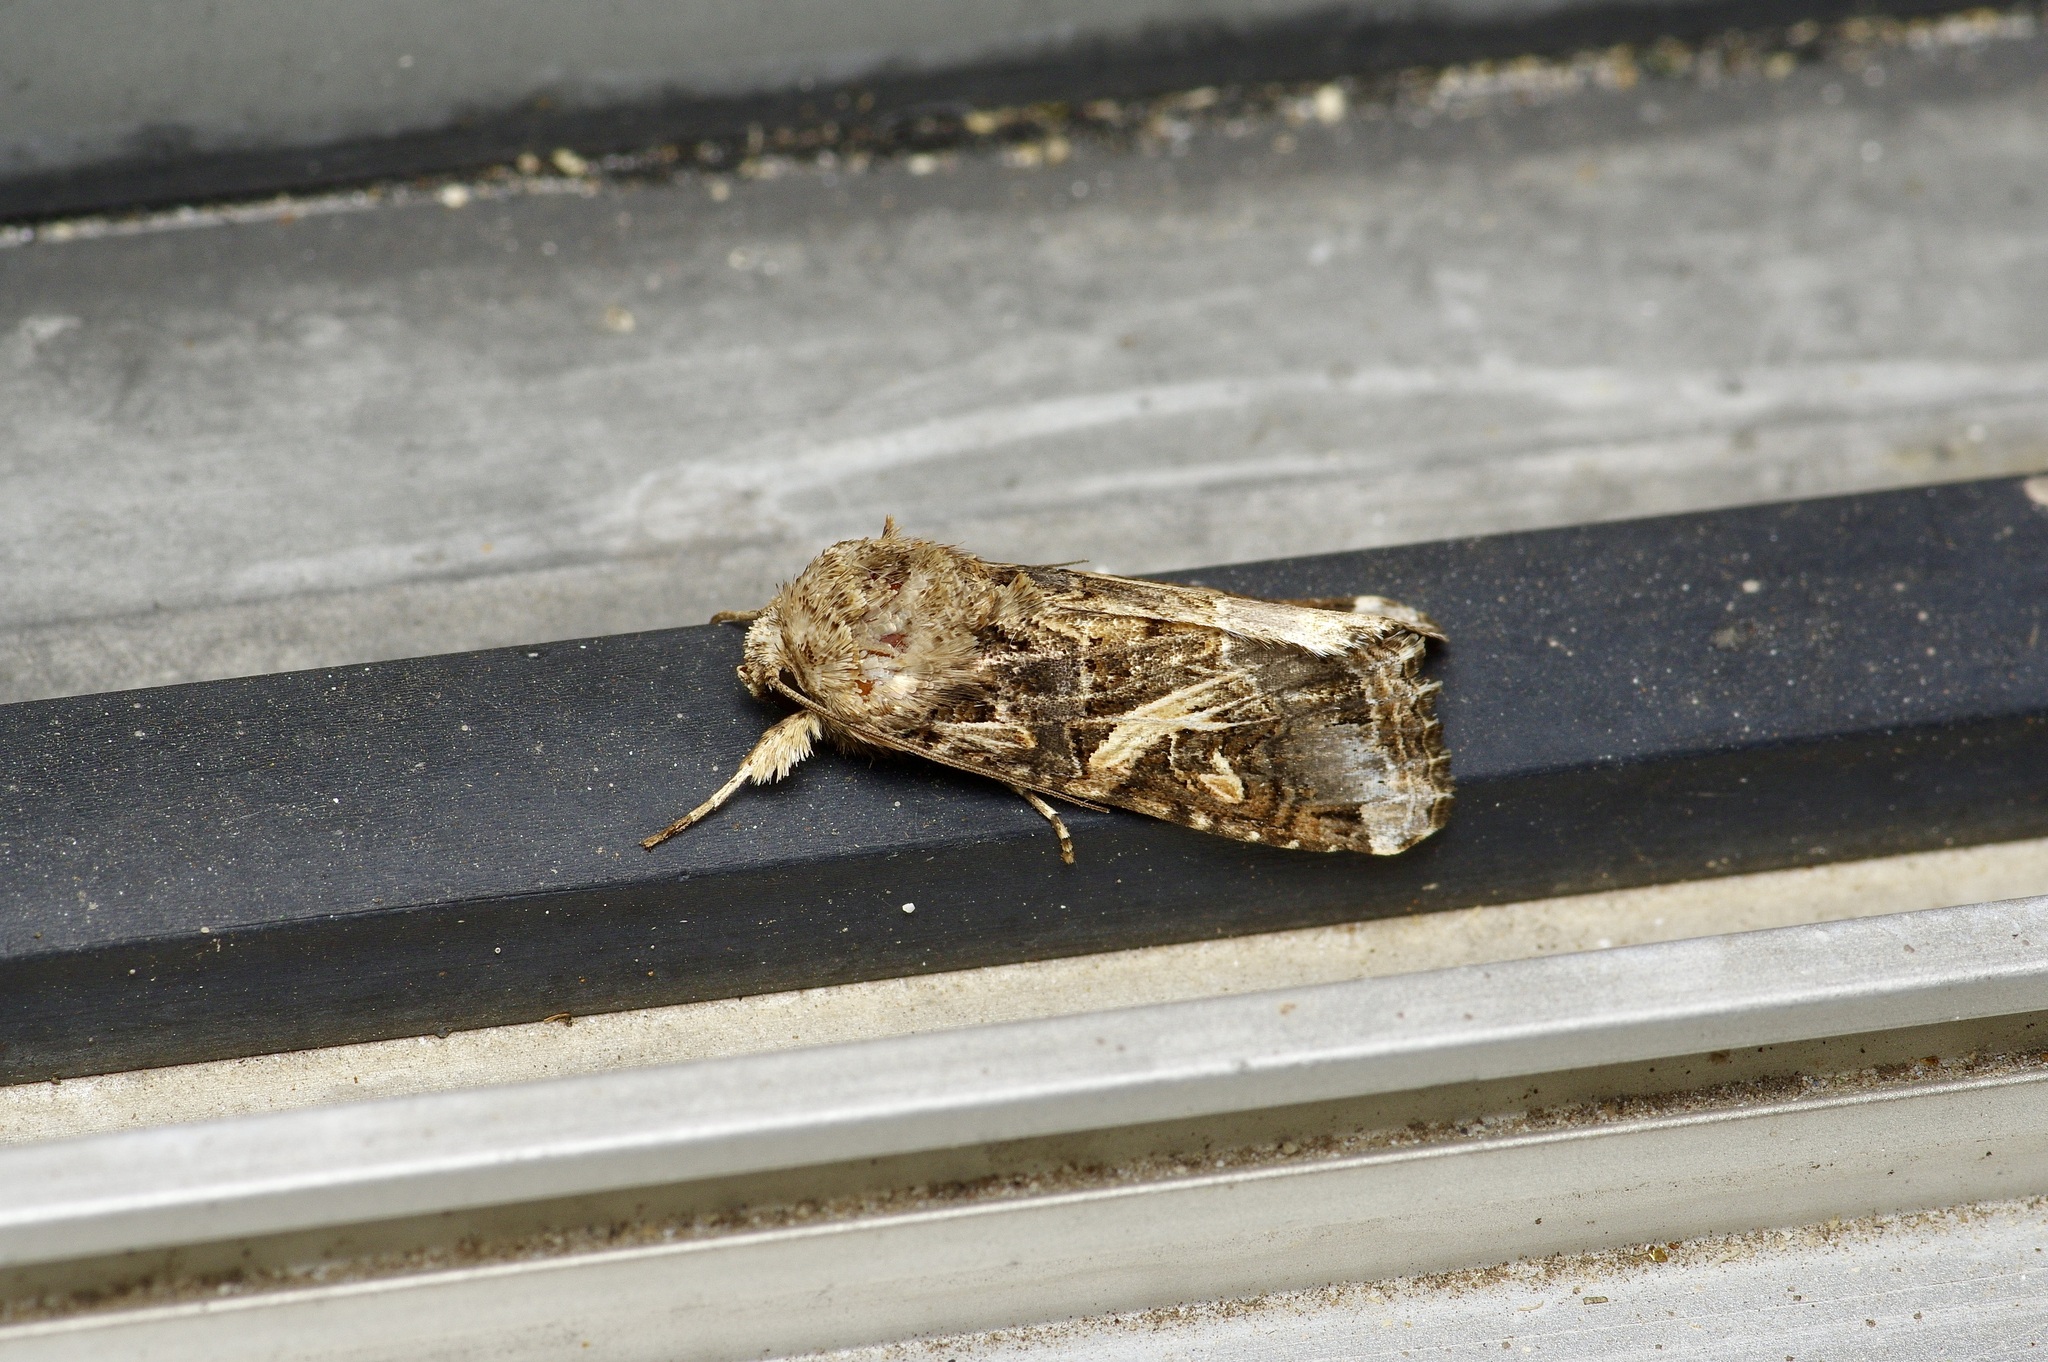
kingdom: Animalia
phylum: Arthropoda
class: Insecta
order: Lepidoptera
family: Noctuidae
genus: Spodoptera
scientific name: Spodoptera ornithogalli
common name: Yellow-striped armyworm
